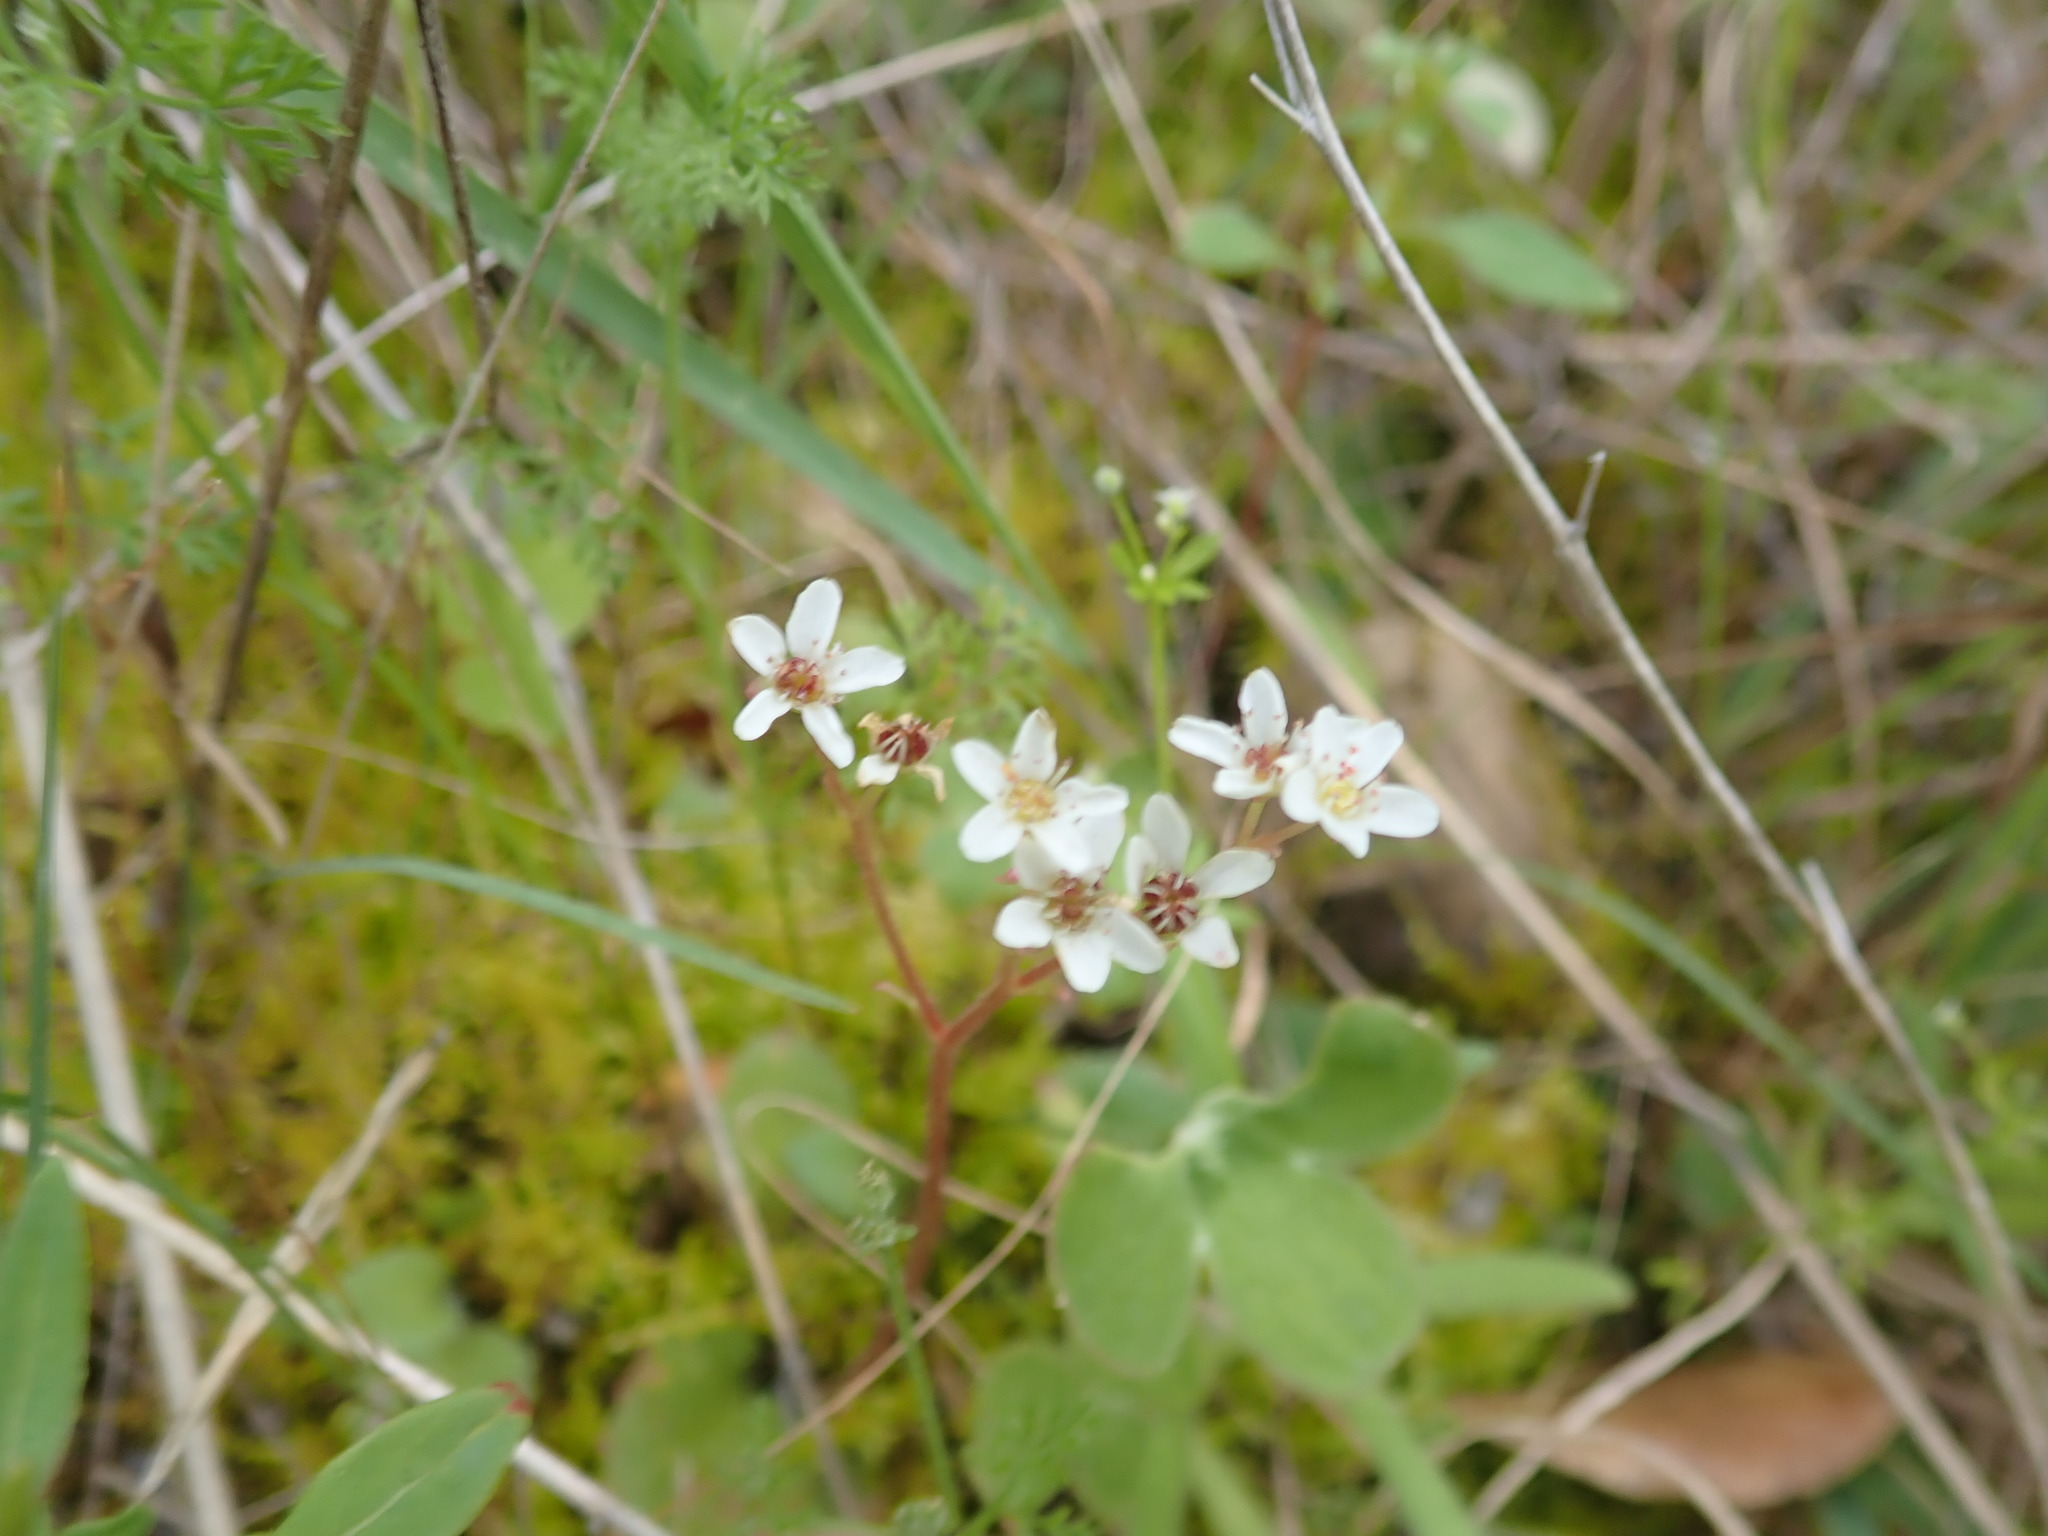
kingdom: Plantae
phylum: Tracheophyta
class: Magnoliopsida
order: Saxifragales
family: Saxifragaceae
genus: Micranthes
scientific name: Micranthes californica
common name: California saxifrage
